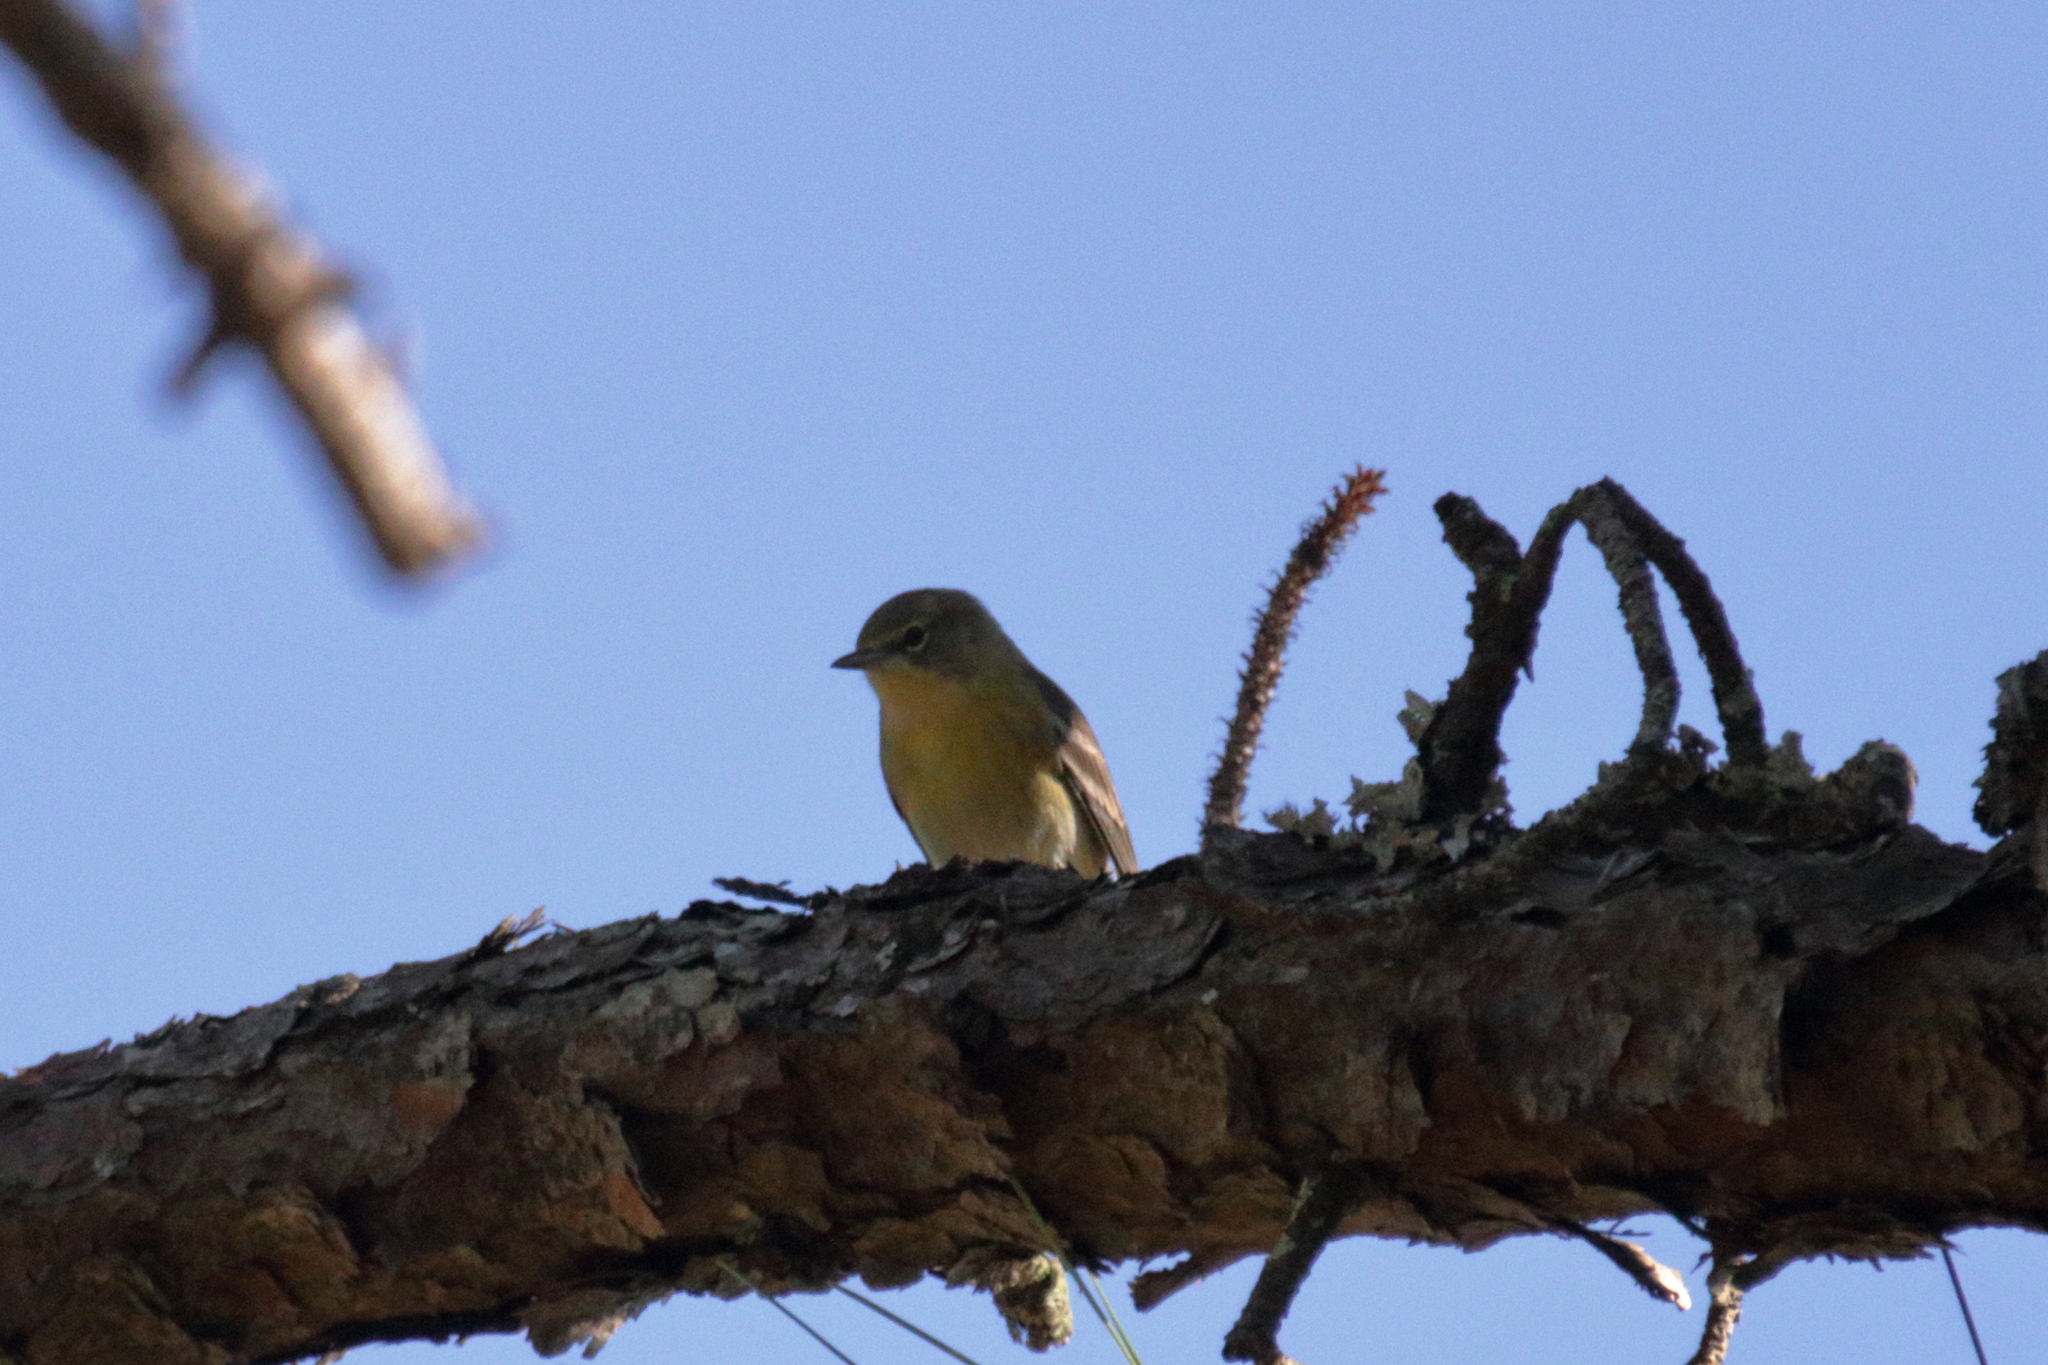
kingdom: Animalia
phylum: Chordata
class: Aves
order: Passeriformes
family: Parulidae
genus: Setophaga
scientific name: Setophaga pinus
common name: Pine warbler
